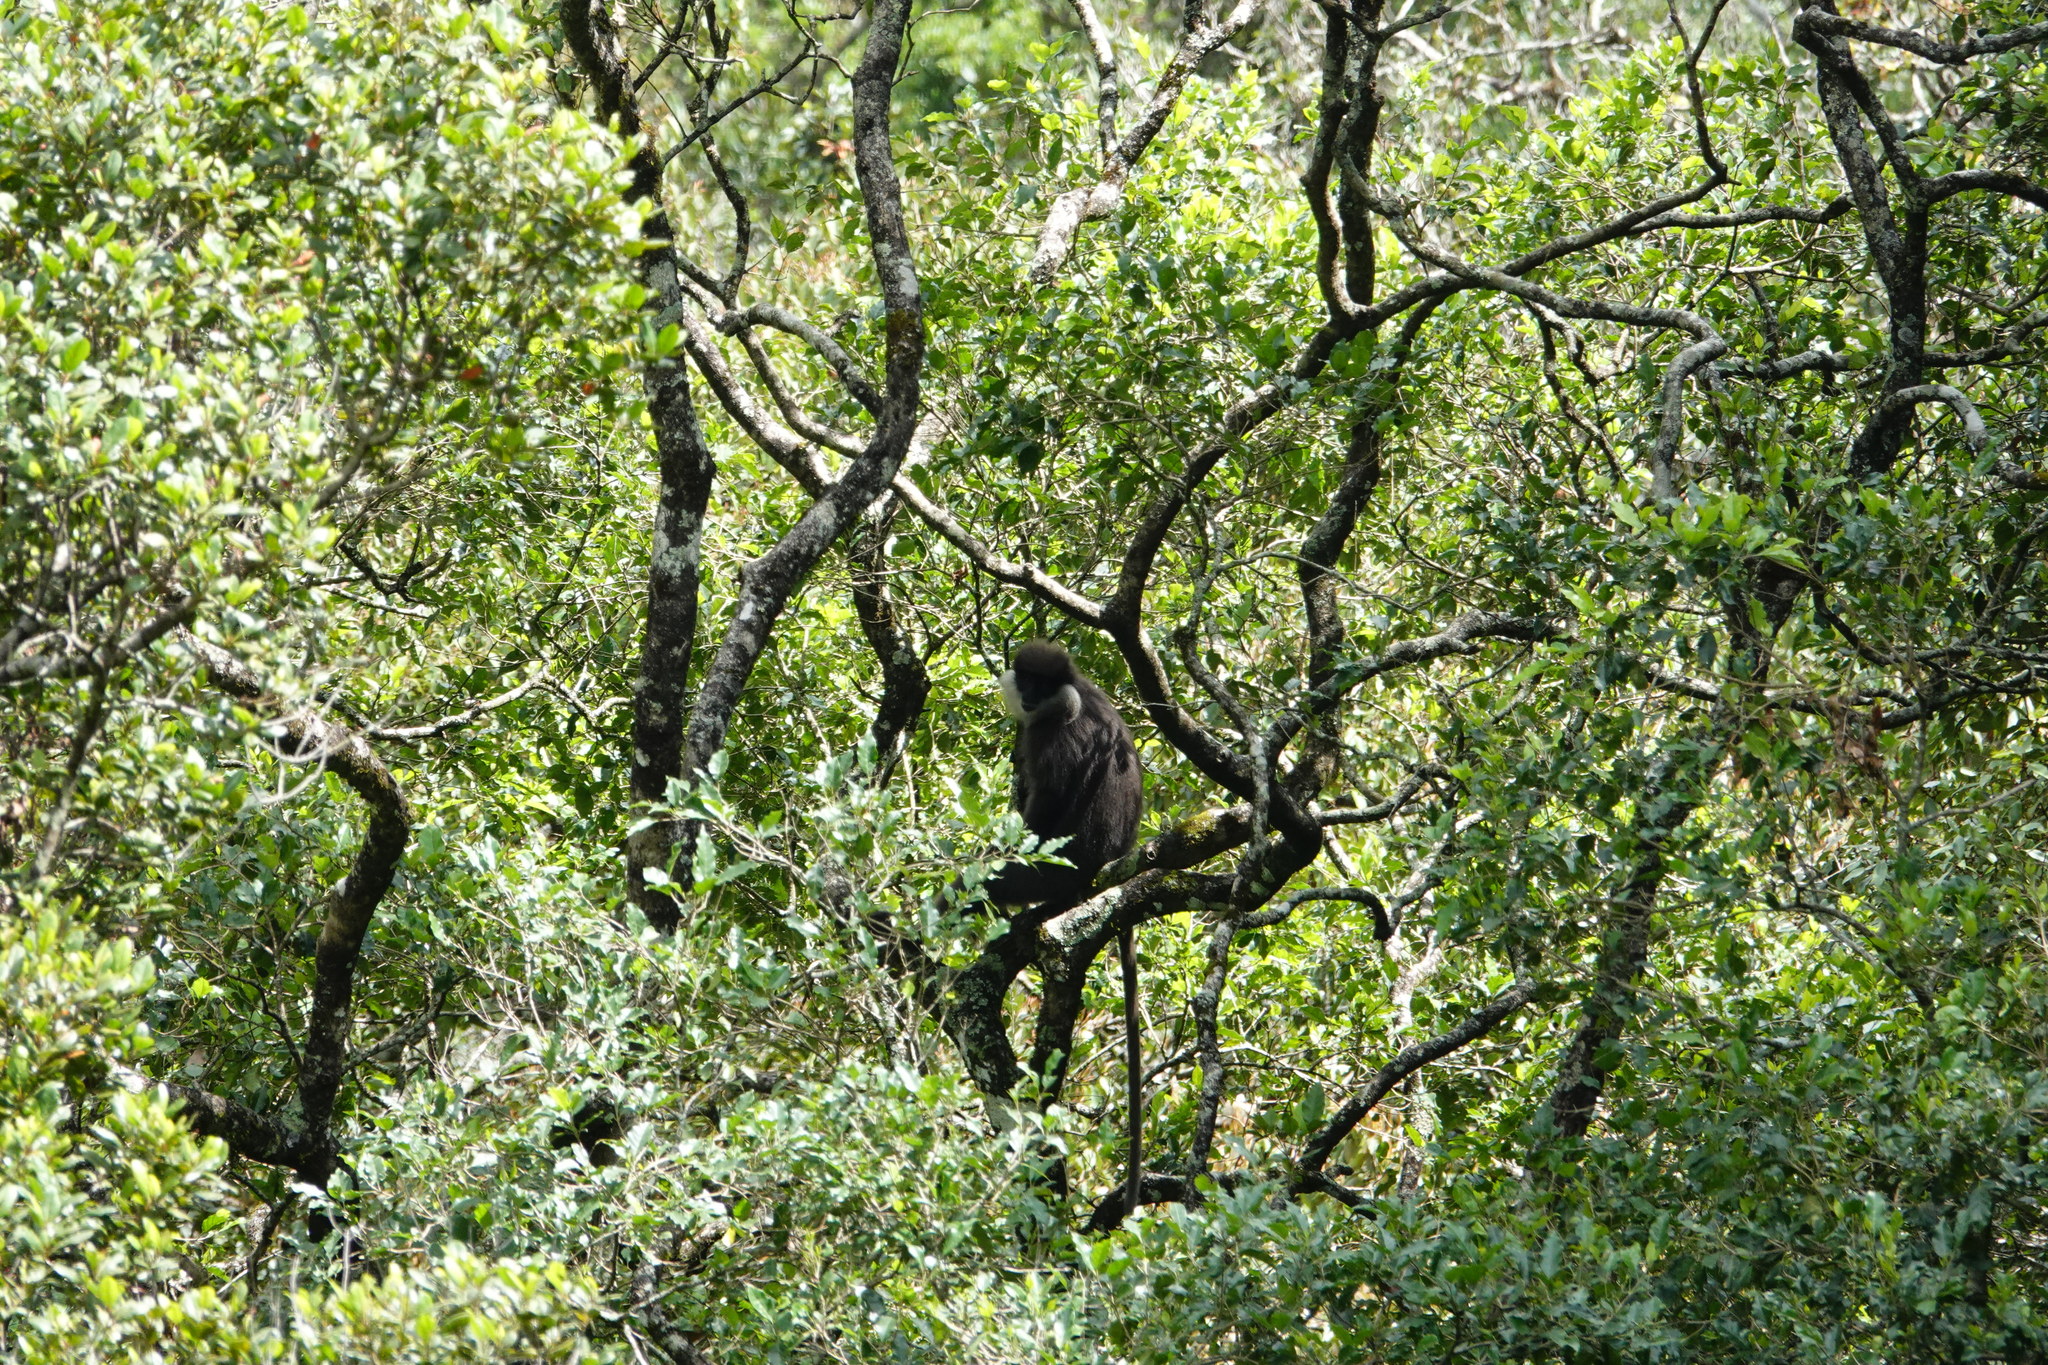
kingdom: Animalia
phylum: Chordata
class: Mammalia
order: Primates
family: Cercopithecidae
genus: Semnopithecus
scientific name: Semnopithecus vetulus
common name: Purple-faced langur
